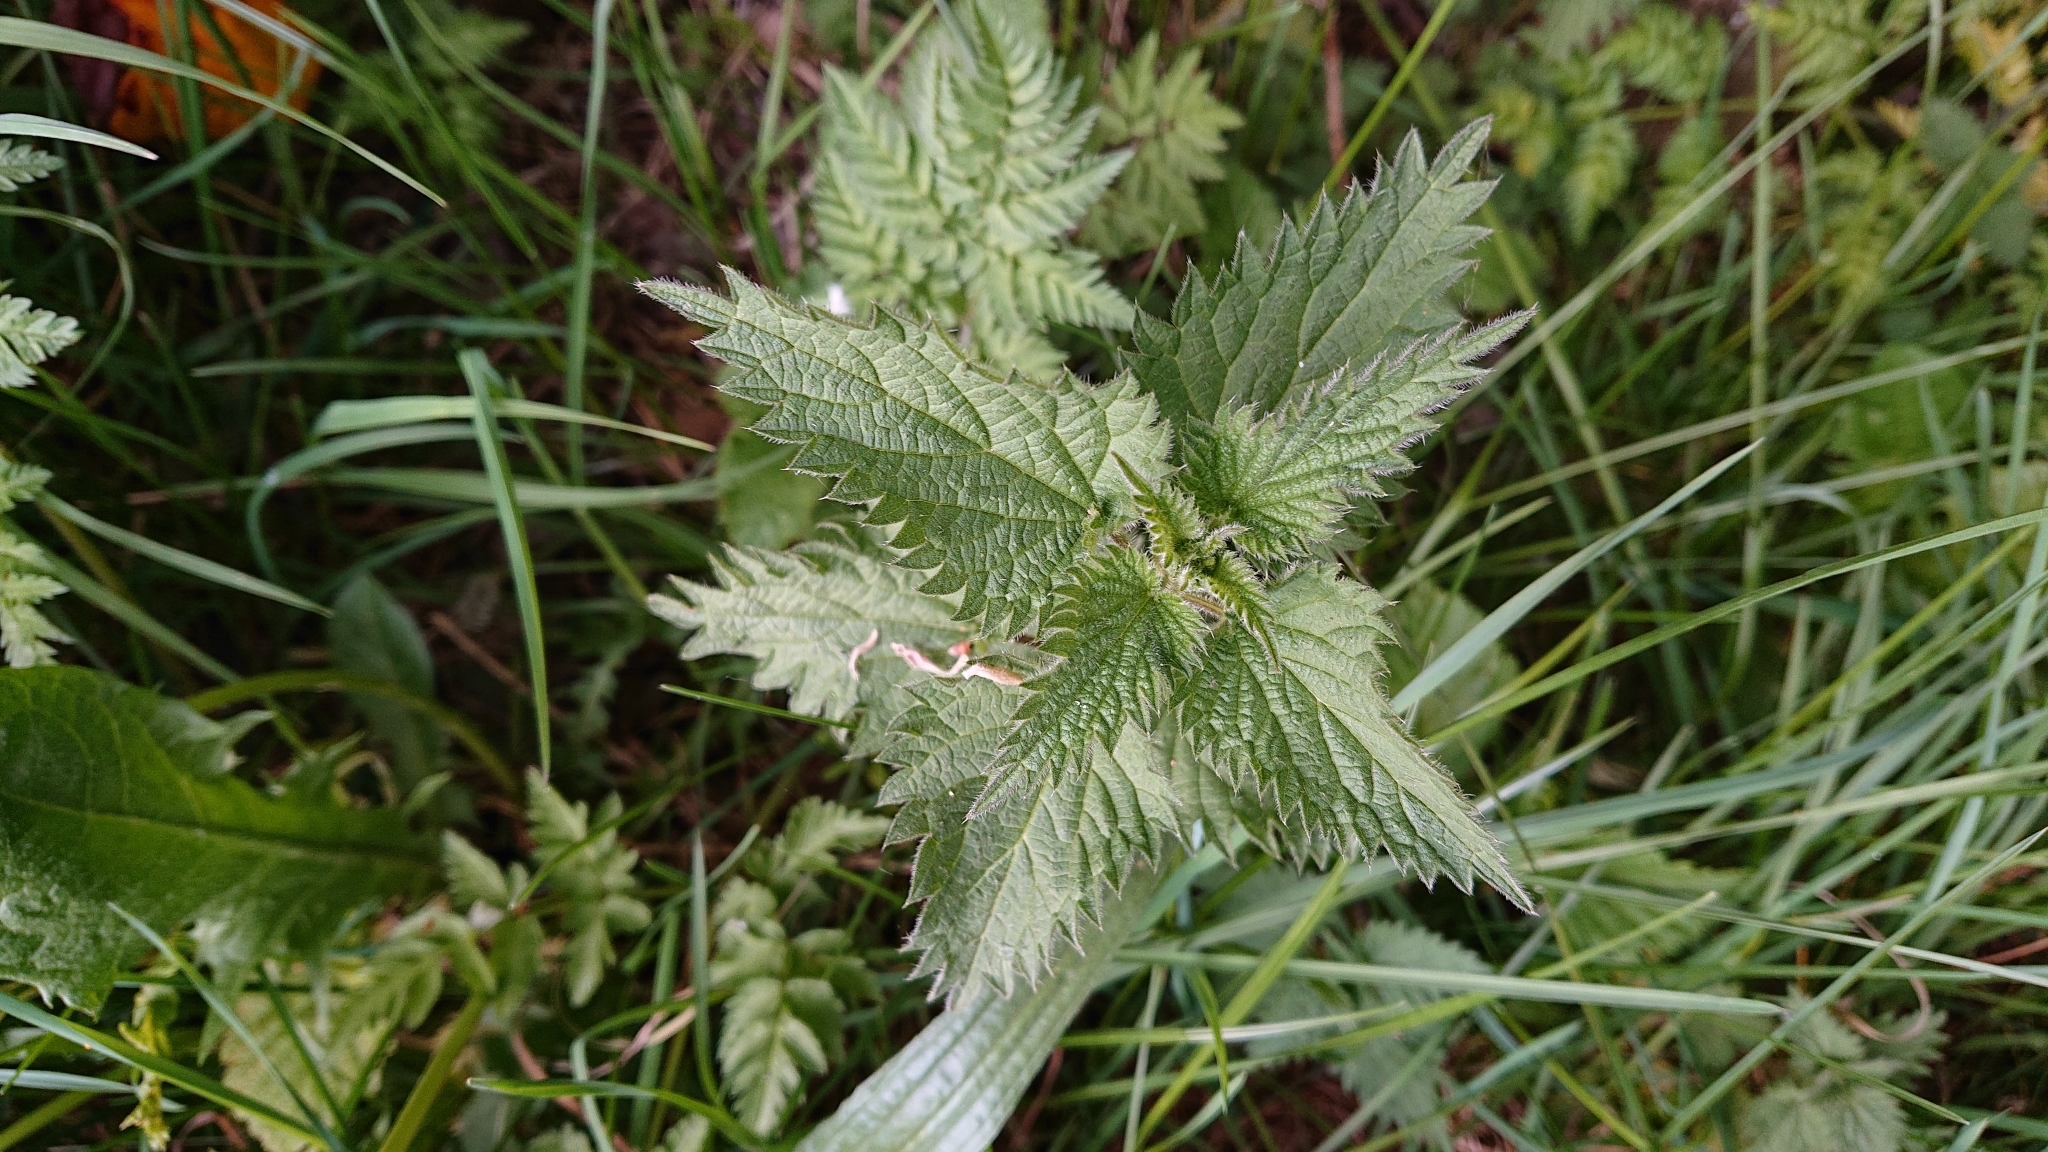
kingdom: Plantae
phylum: Tracheophyta
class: Magnoliopsida
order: Rosales
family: Urticaceae
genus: Urtica
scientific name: Urtica dioica
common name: Common nettle
